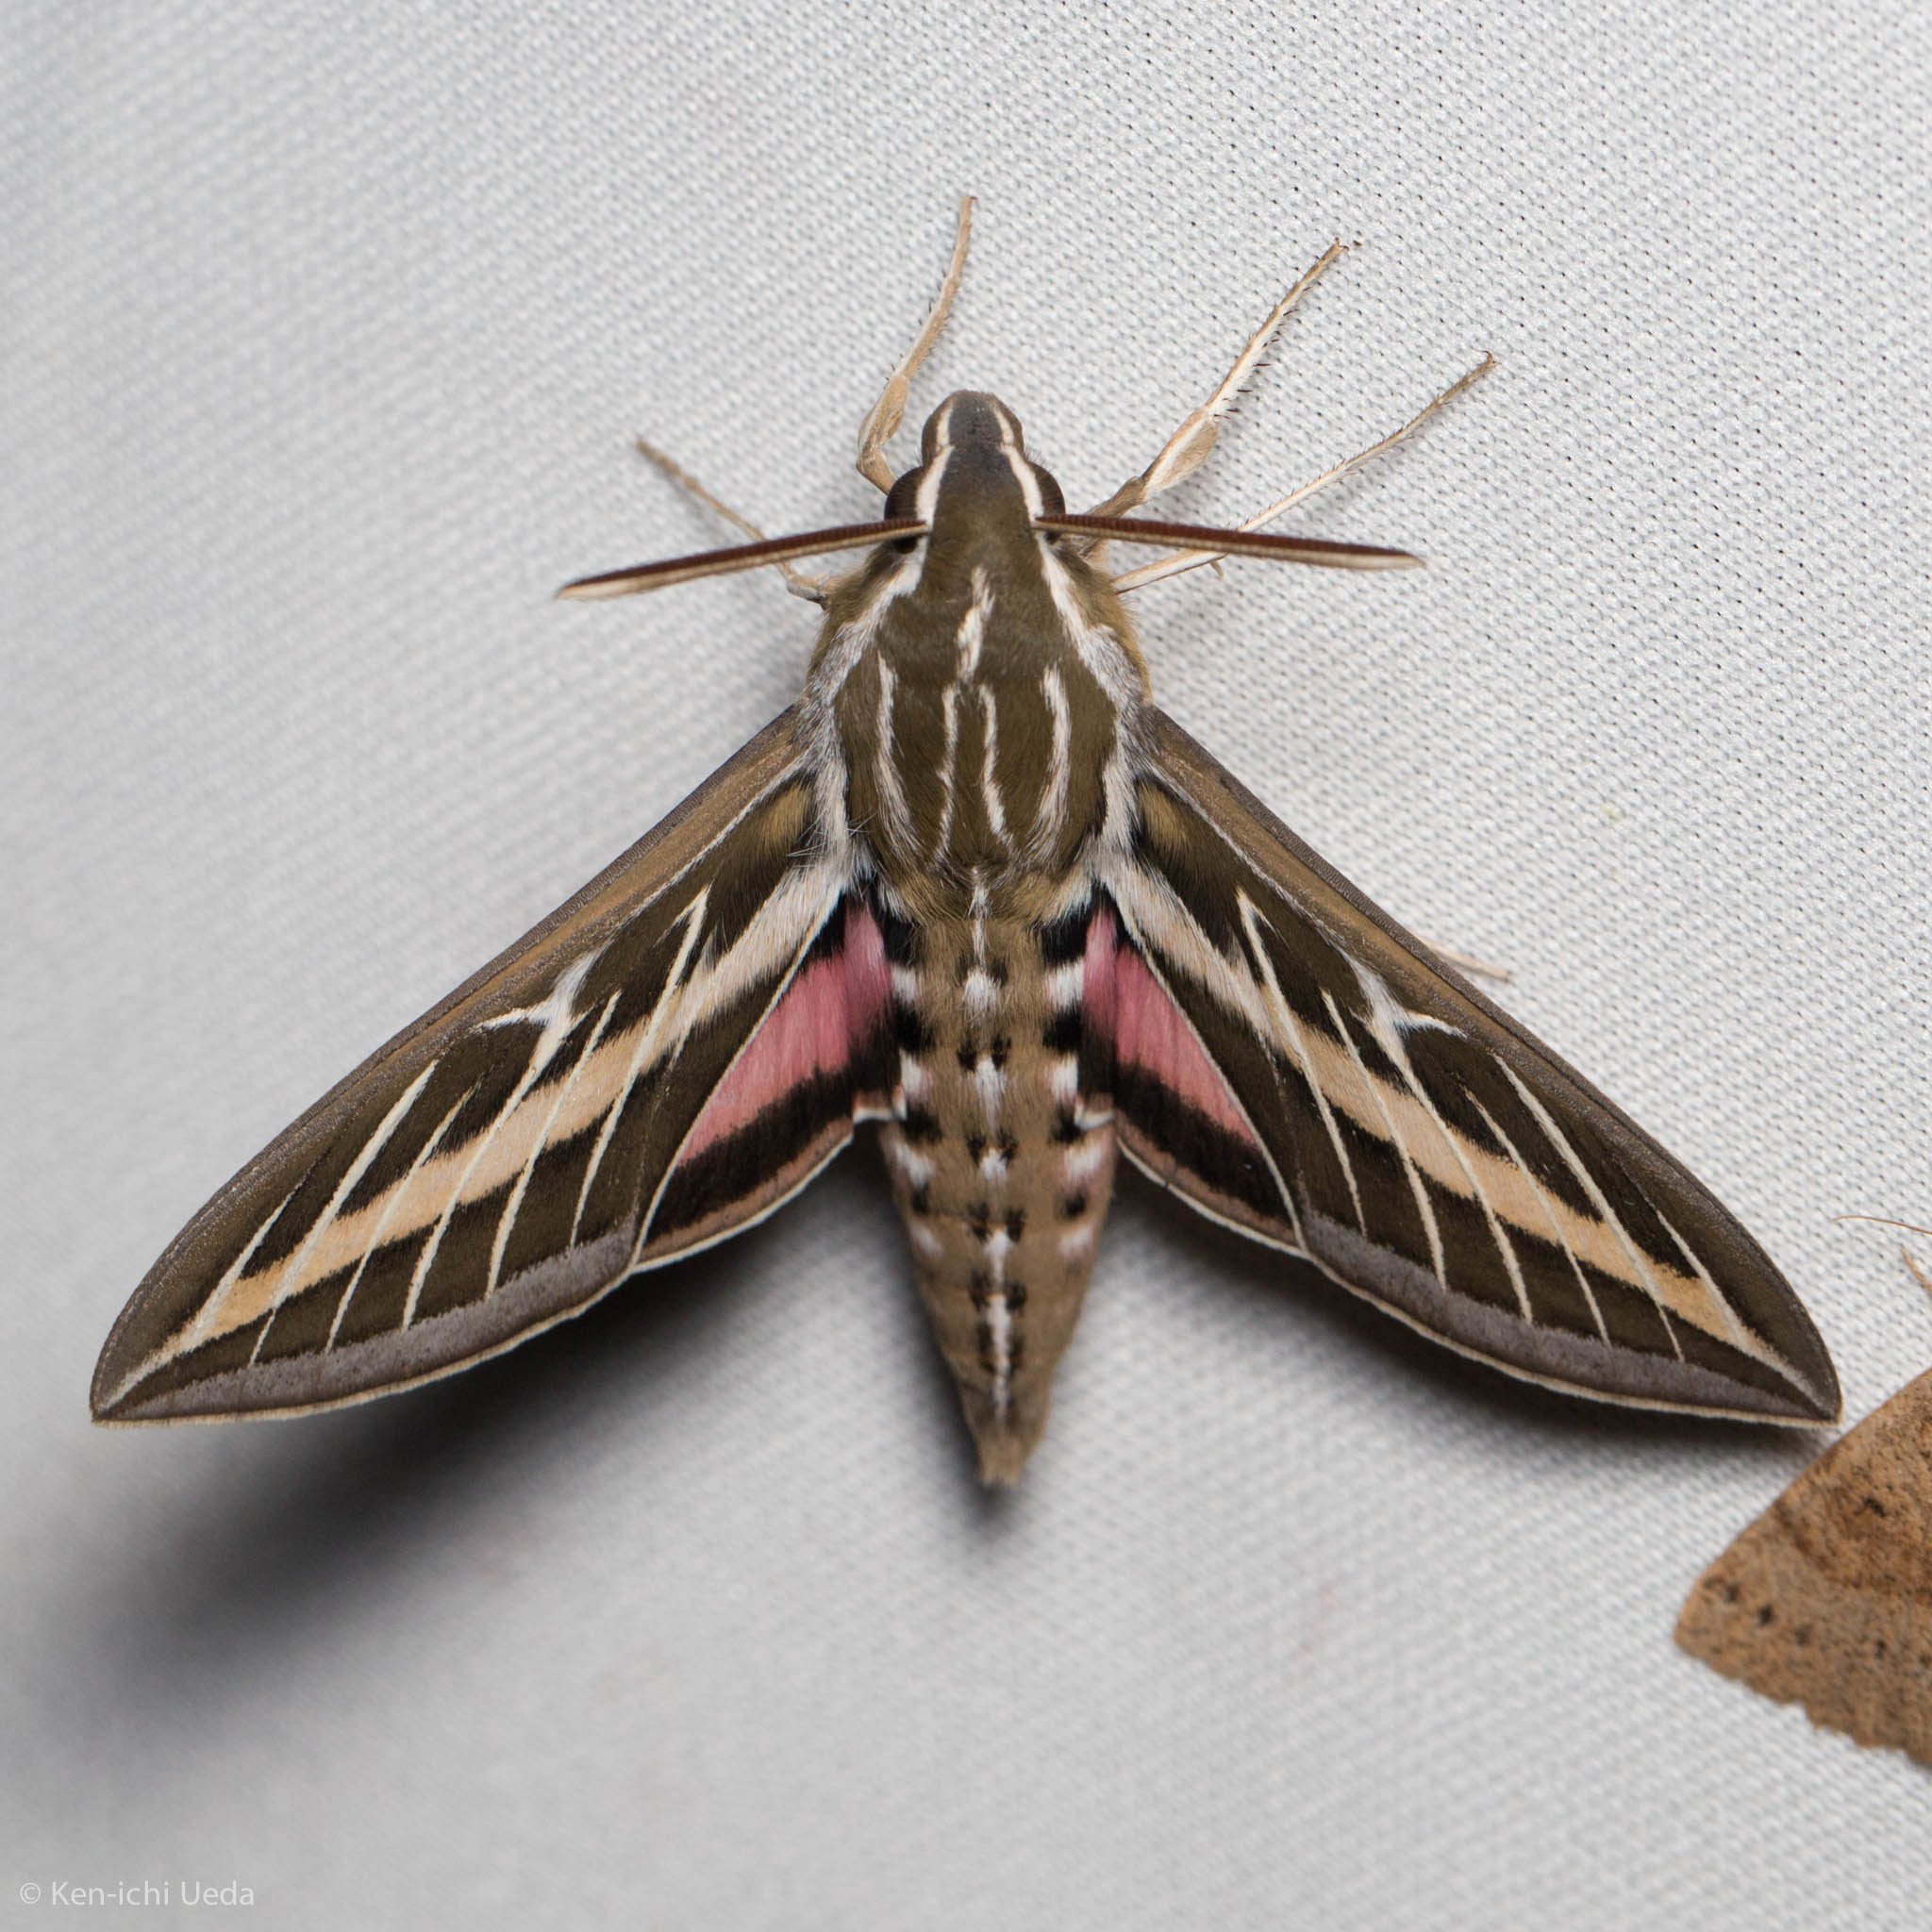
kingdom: Animalia
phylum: Arthropoda
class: Insecta
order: Lepidoptera
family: Sphingidae
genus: Hyles
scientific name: Hyles lineata
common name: White-lined sphinx
